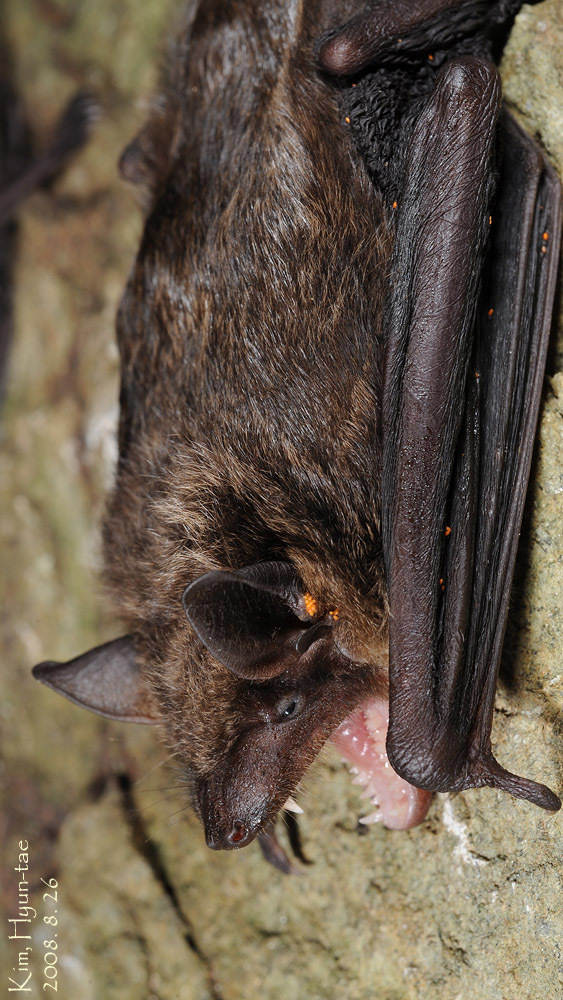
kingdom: Animalia
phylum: Chordata
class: Mammalia
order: Chiroptera
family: Vespertilionidae
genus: Eptesicus
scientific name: Eptesicus pachyomus
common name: Mouse-like serotine
